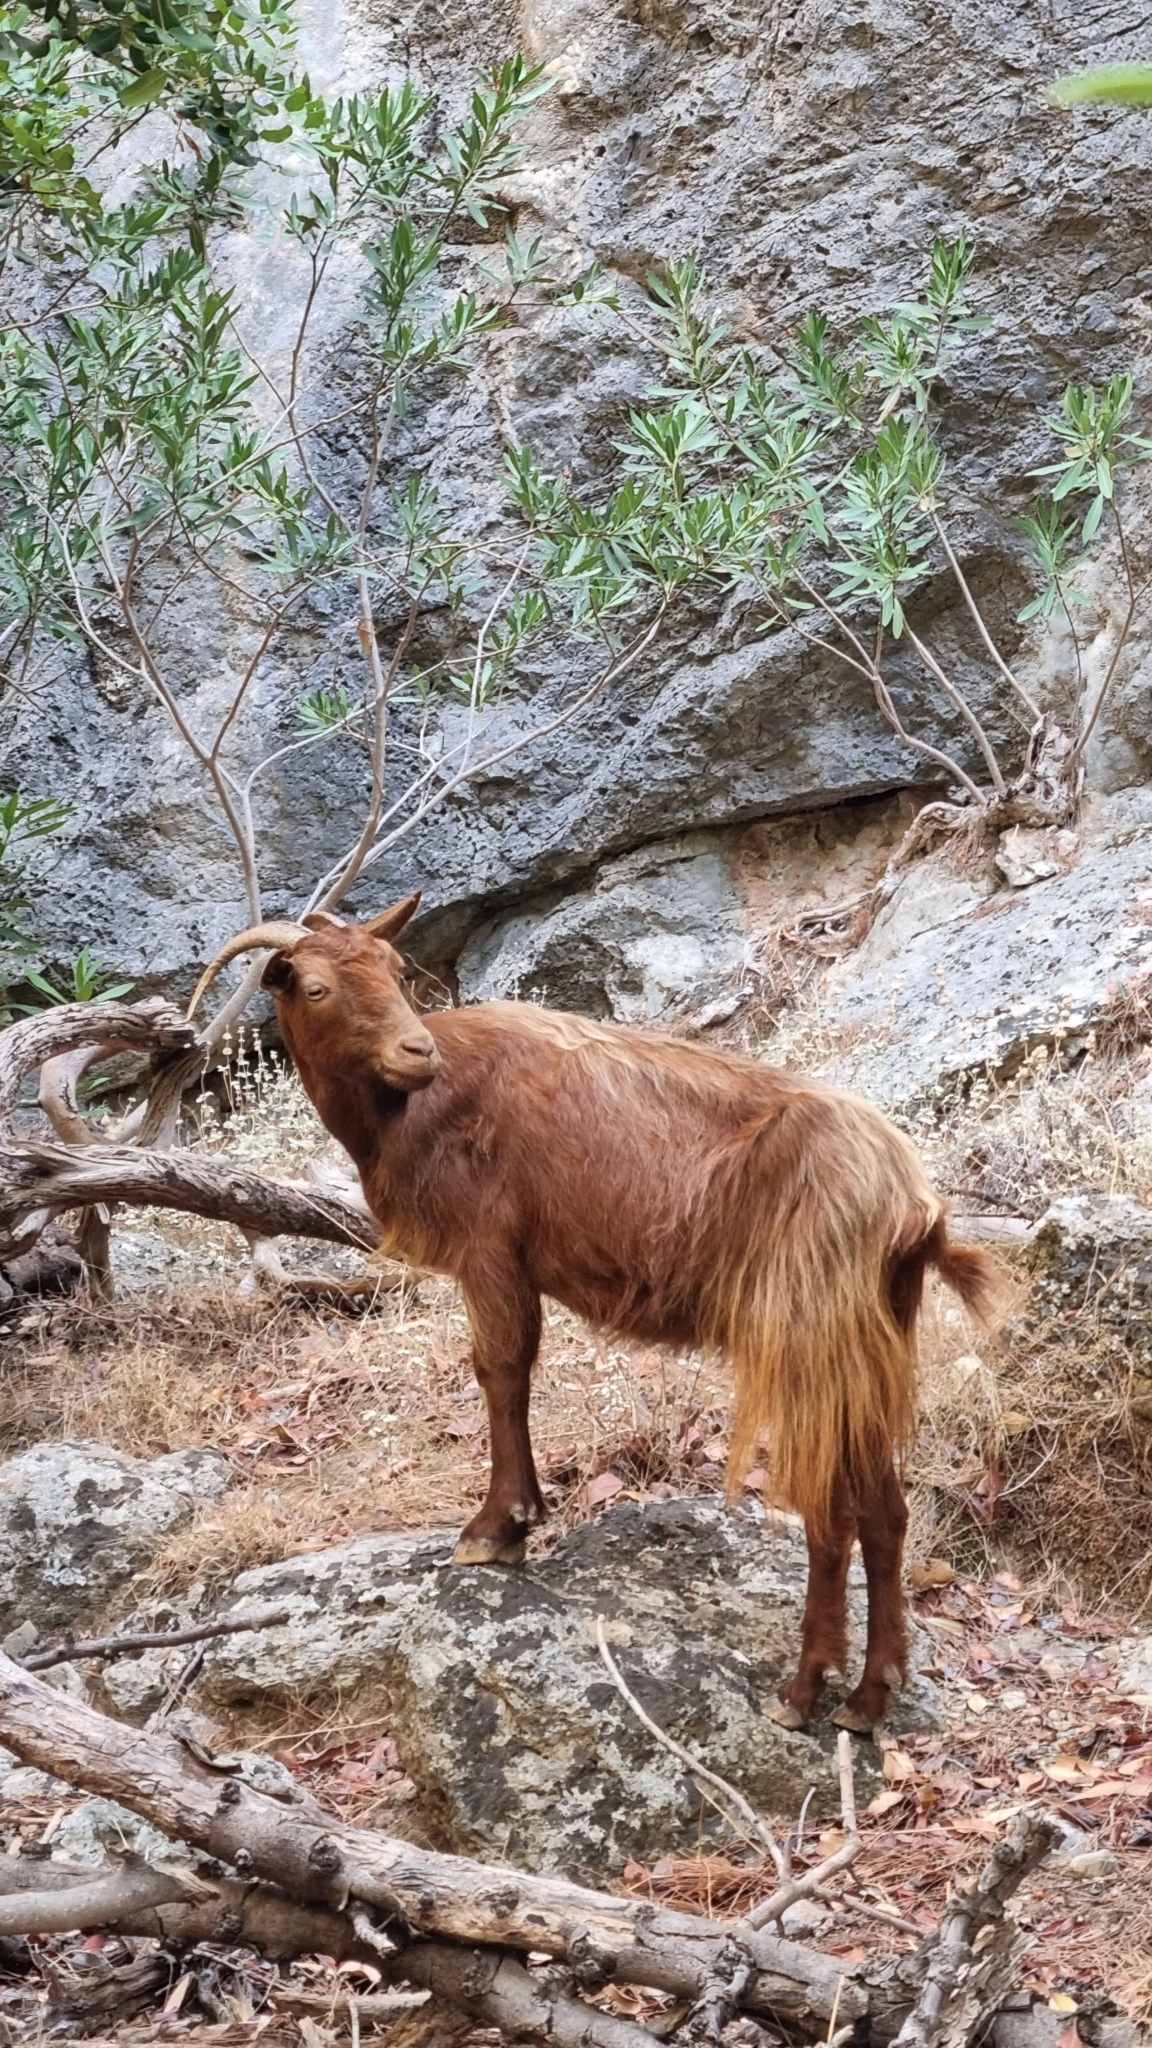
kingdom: Animalia
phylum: Chordata
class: Mammalia
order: Artiodactyla
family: Bovidae
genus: Capra
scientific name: Capra hircus
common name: Domestic goat
